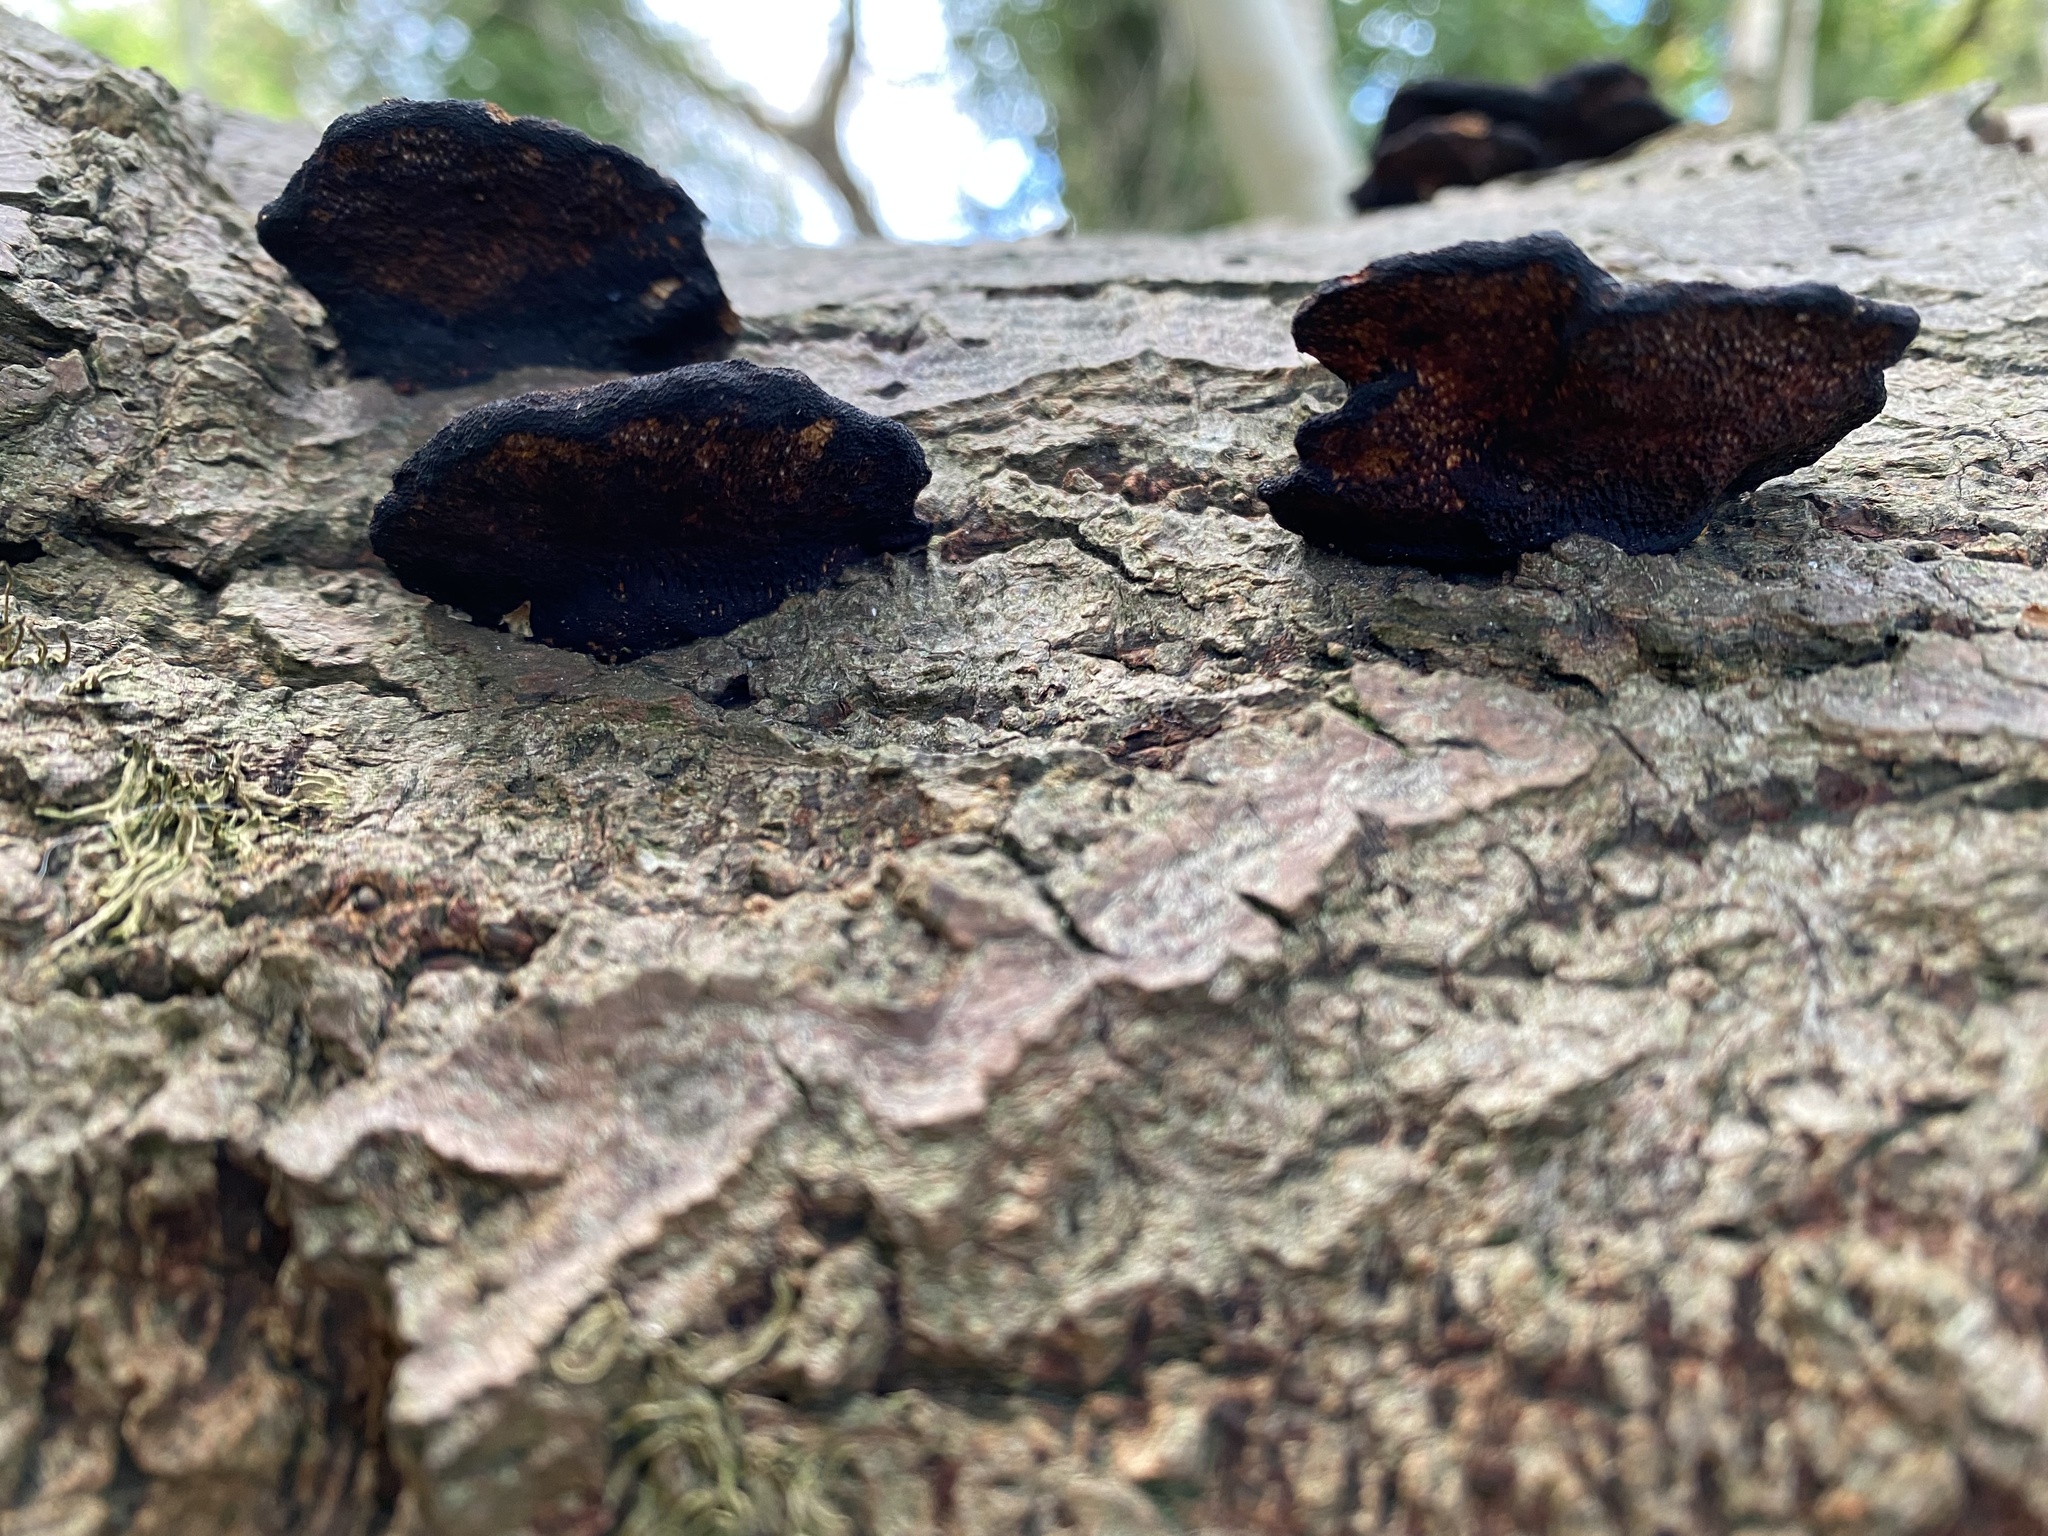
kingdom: Fungi
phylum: Basidiomycota
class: Agaricomycetes
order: Polyporales
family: Polyporaceae
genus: Daedaleopsis
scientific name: Daedaleopsis confragosa
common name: Blushing bracket
